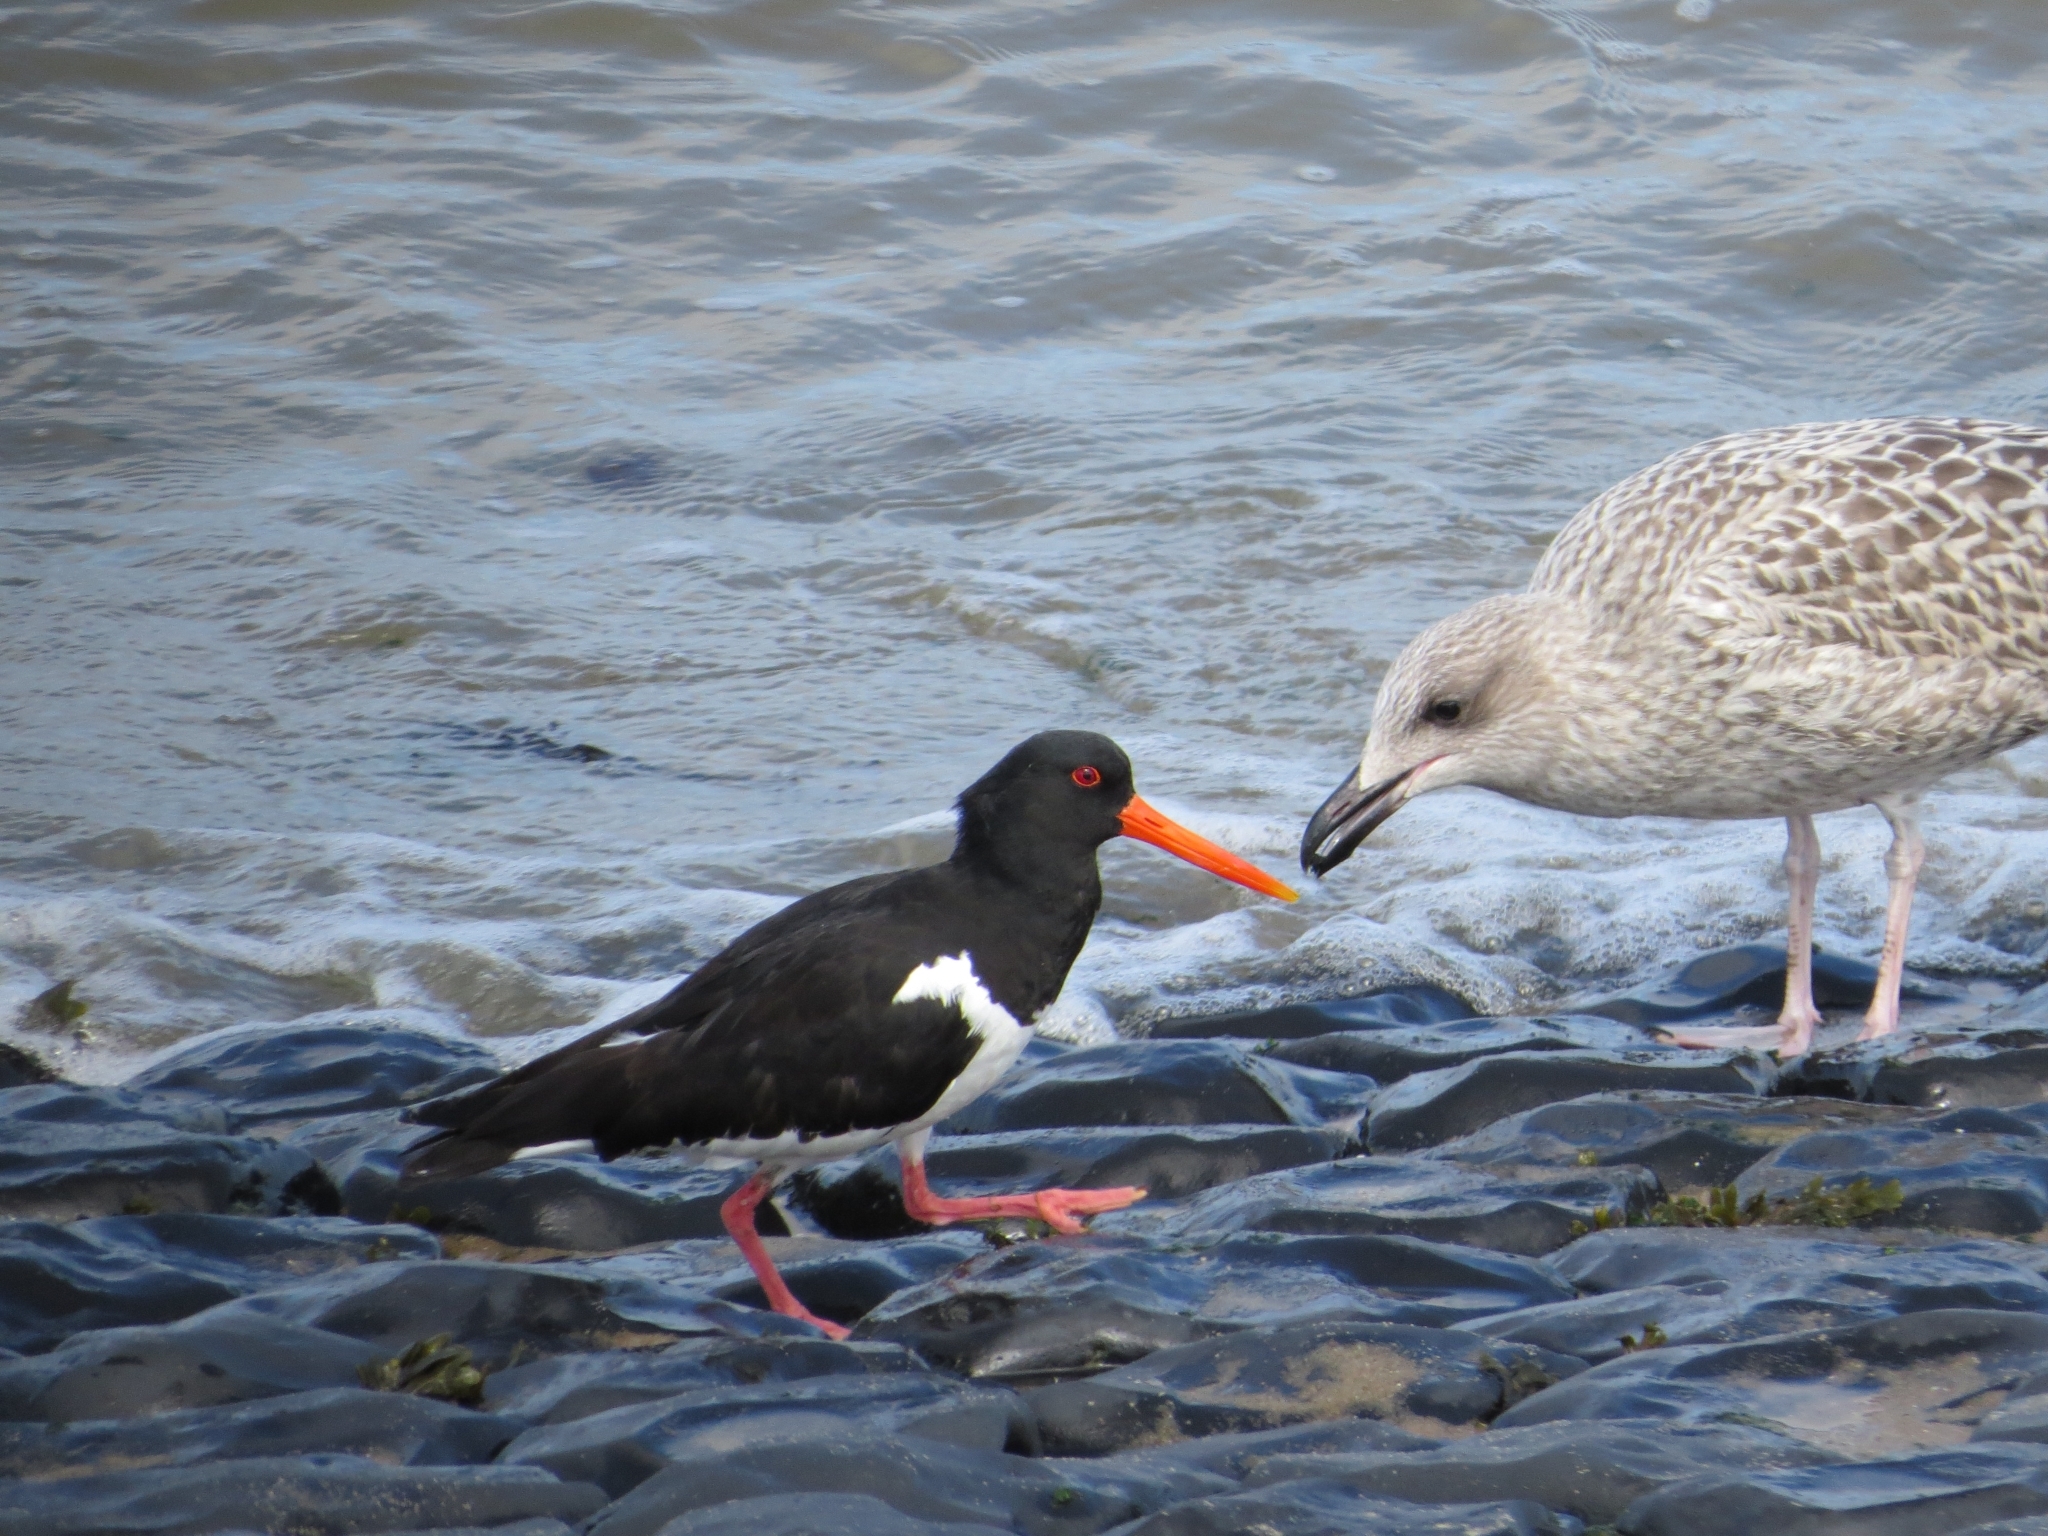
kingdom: Animalia
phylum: Chordata
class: Aves
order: Charadriiformes
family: Haematopodidae
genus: Haematopus
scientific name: Haematopus ostralegus
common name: Eurasian oystercatcher
